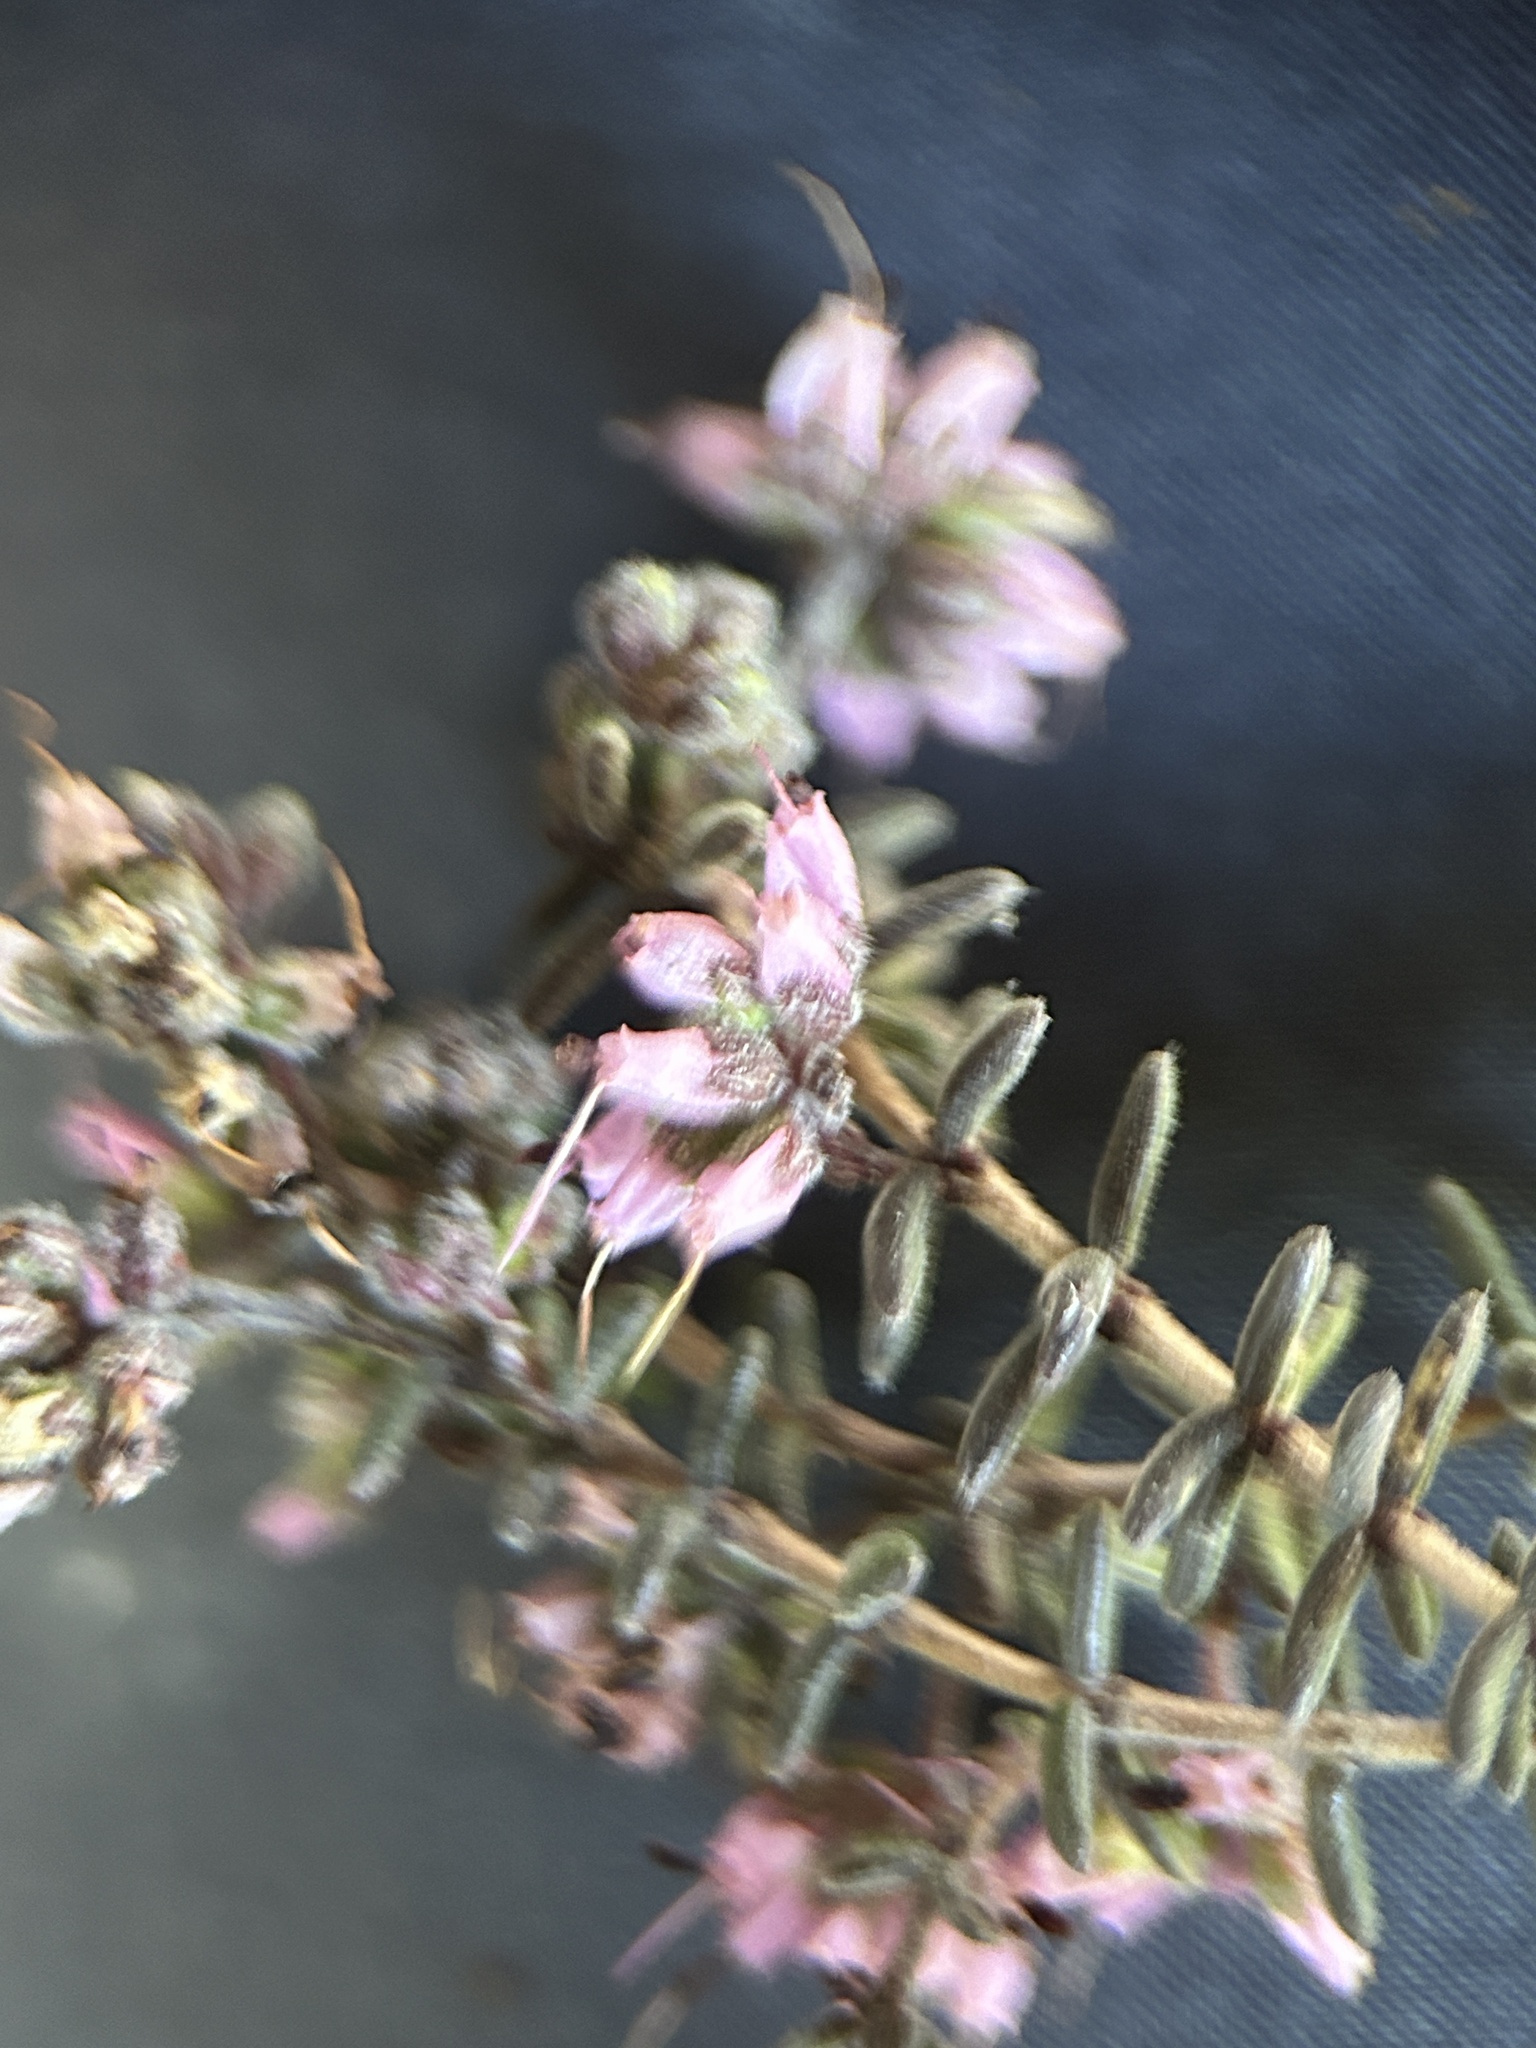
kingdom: Plantae
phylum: Tracheophyta
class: Magnoliopsida
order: Ericales
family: Ericaceae
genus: Erica
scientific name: Erica radicans
